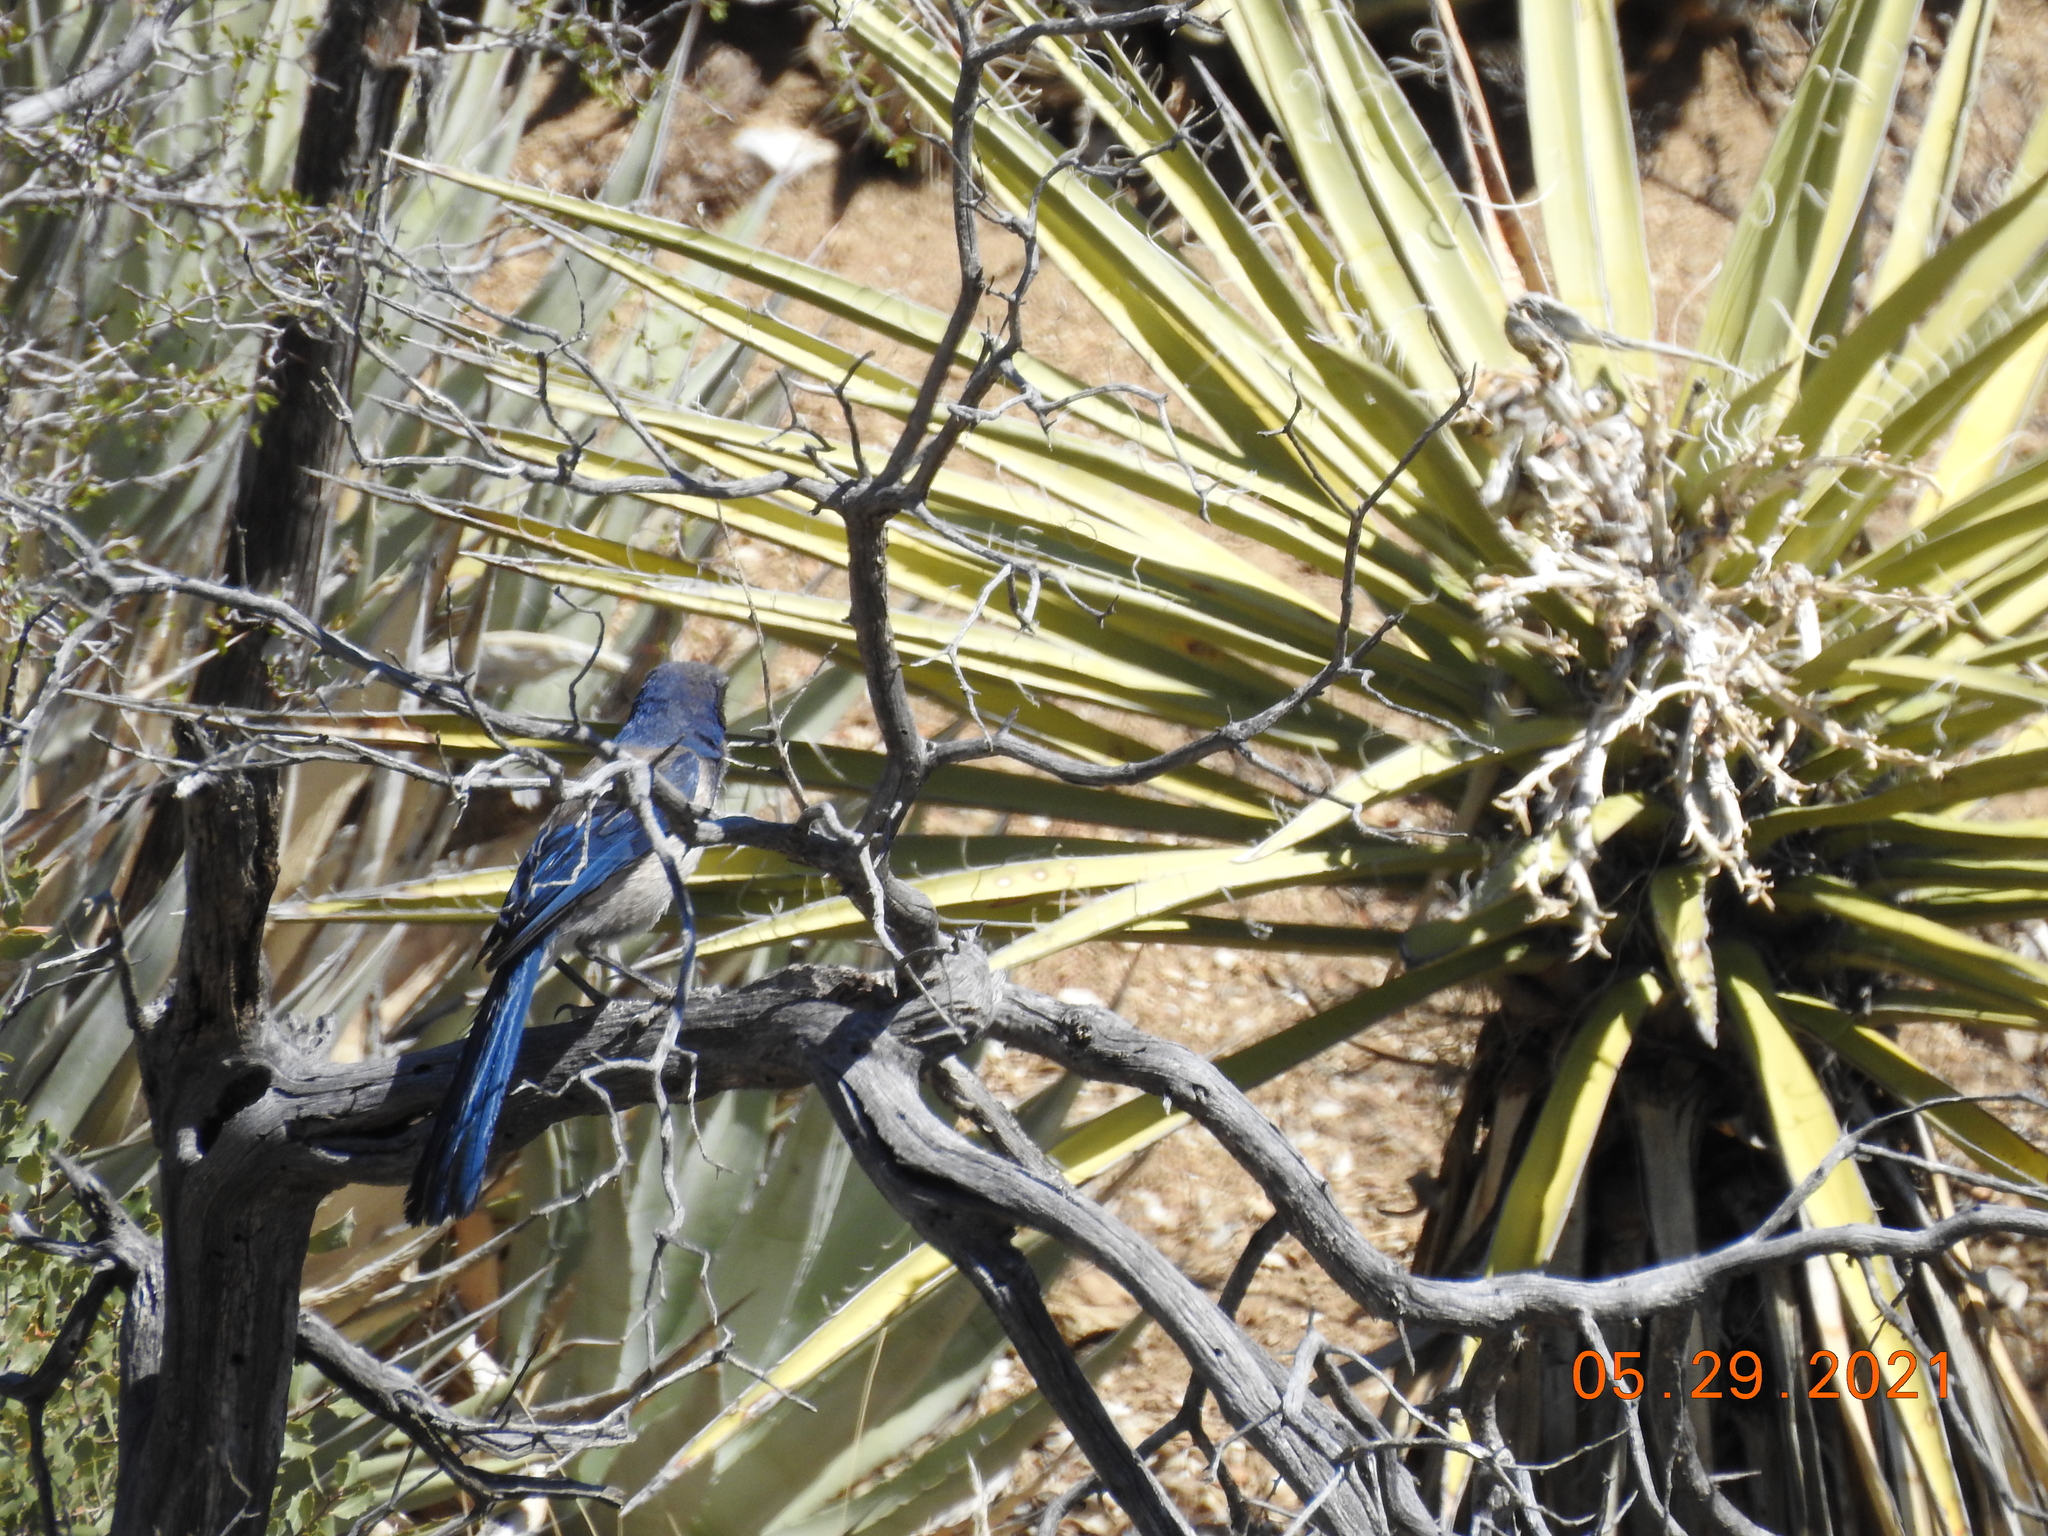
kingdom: Animalia
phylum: Chordata
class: Aves
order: Passeriformes
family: Corvidae
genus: Aphelocoma
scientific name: Aphelocoma californica
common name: California scrub-jay
